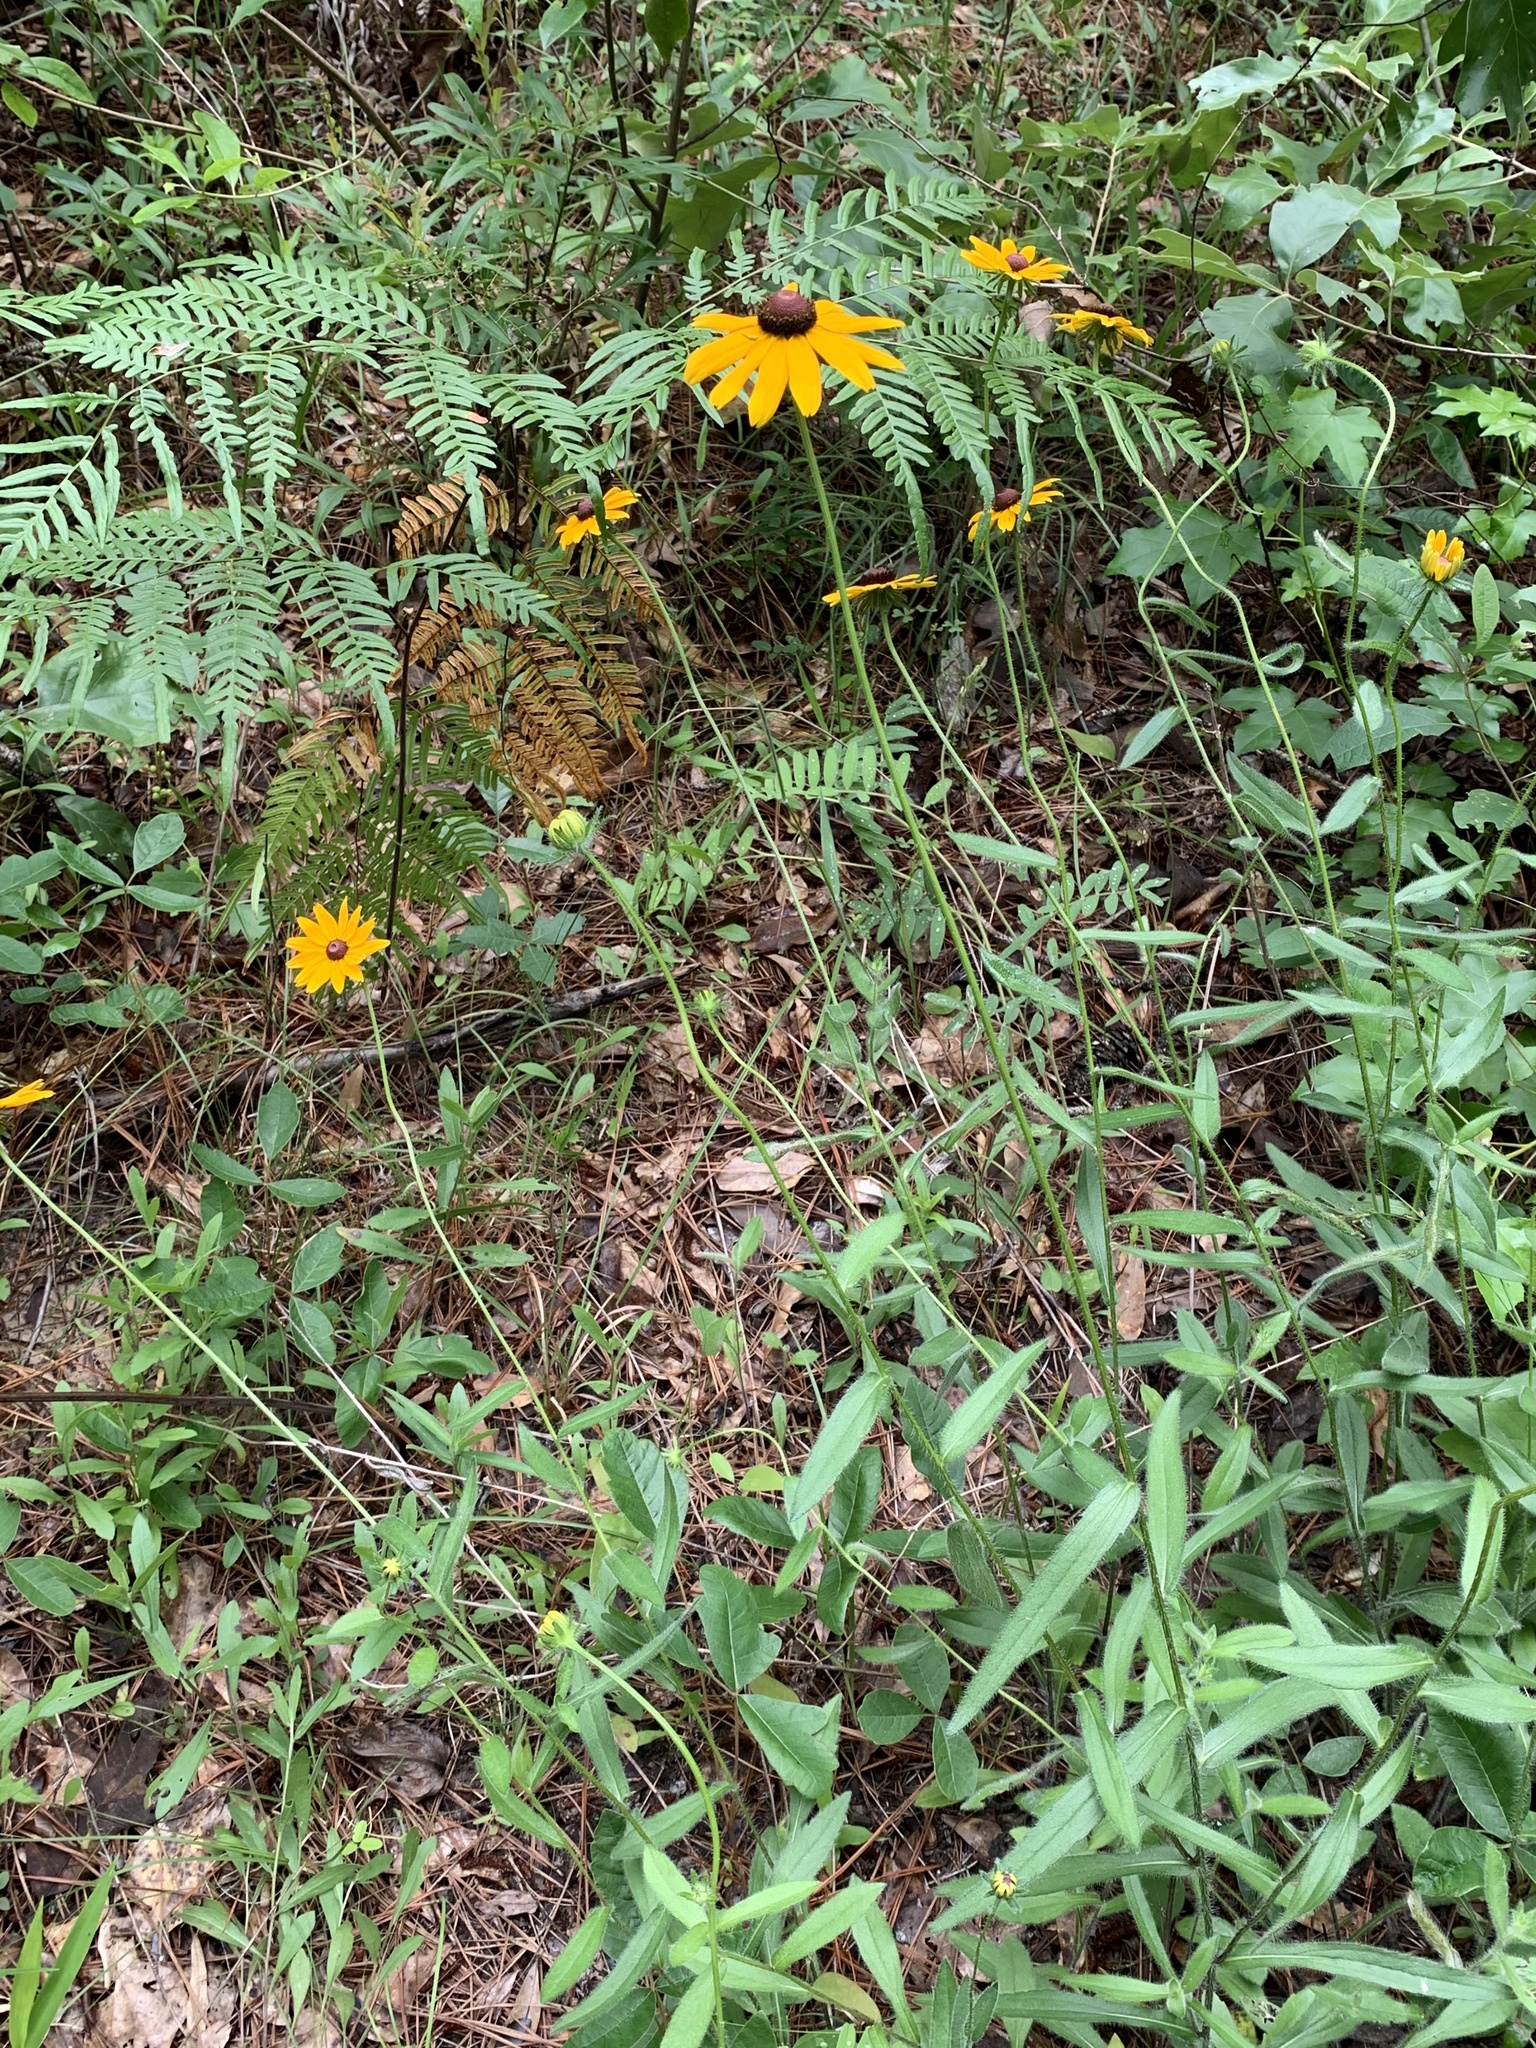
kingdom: Plantae
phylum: Tracheophyta
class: Magnoliopsida
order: Asterales
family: Asteraceae
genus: Rudbeckia
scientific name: Rudbeckia hirta
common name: Black-eyed-susan
